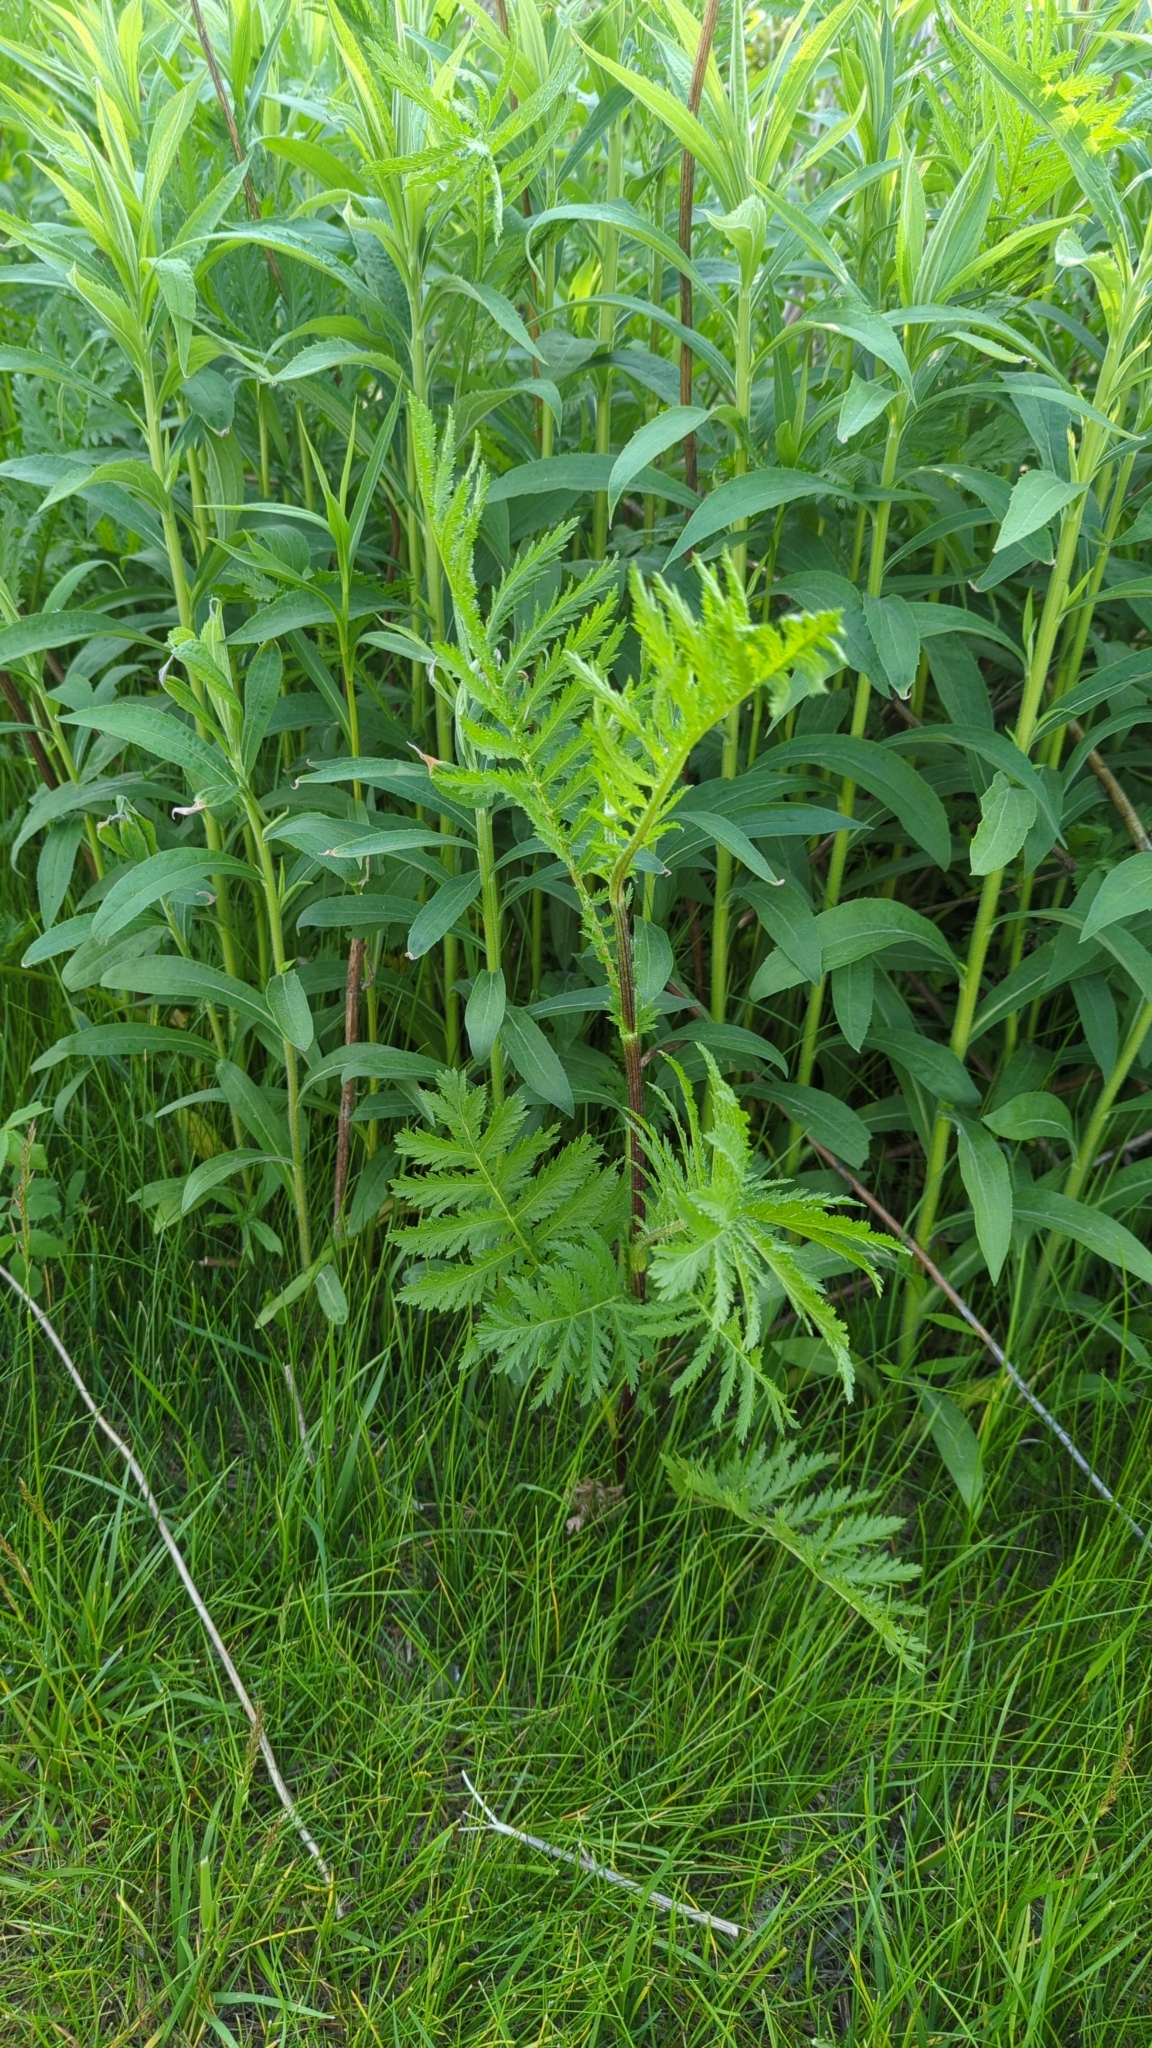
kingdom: Plantae
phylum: Tracheophyta
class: Magnoliopsida
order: Asterales
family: Asteraceae
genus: Tanacetum
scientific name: Tanacetum vulgare
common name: Common tansy
